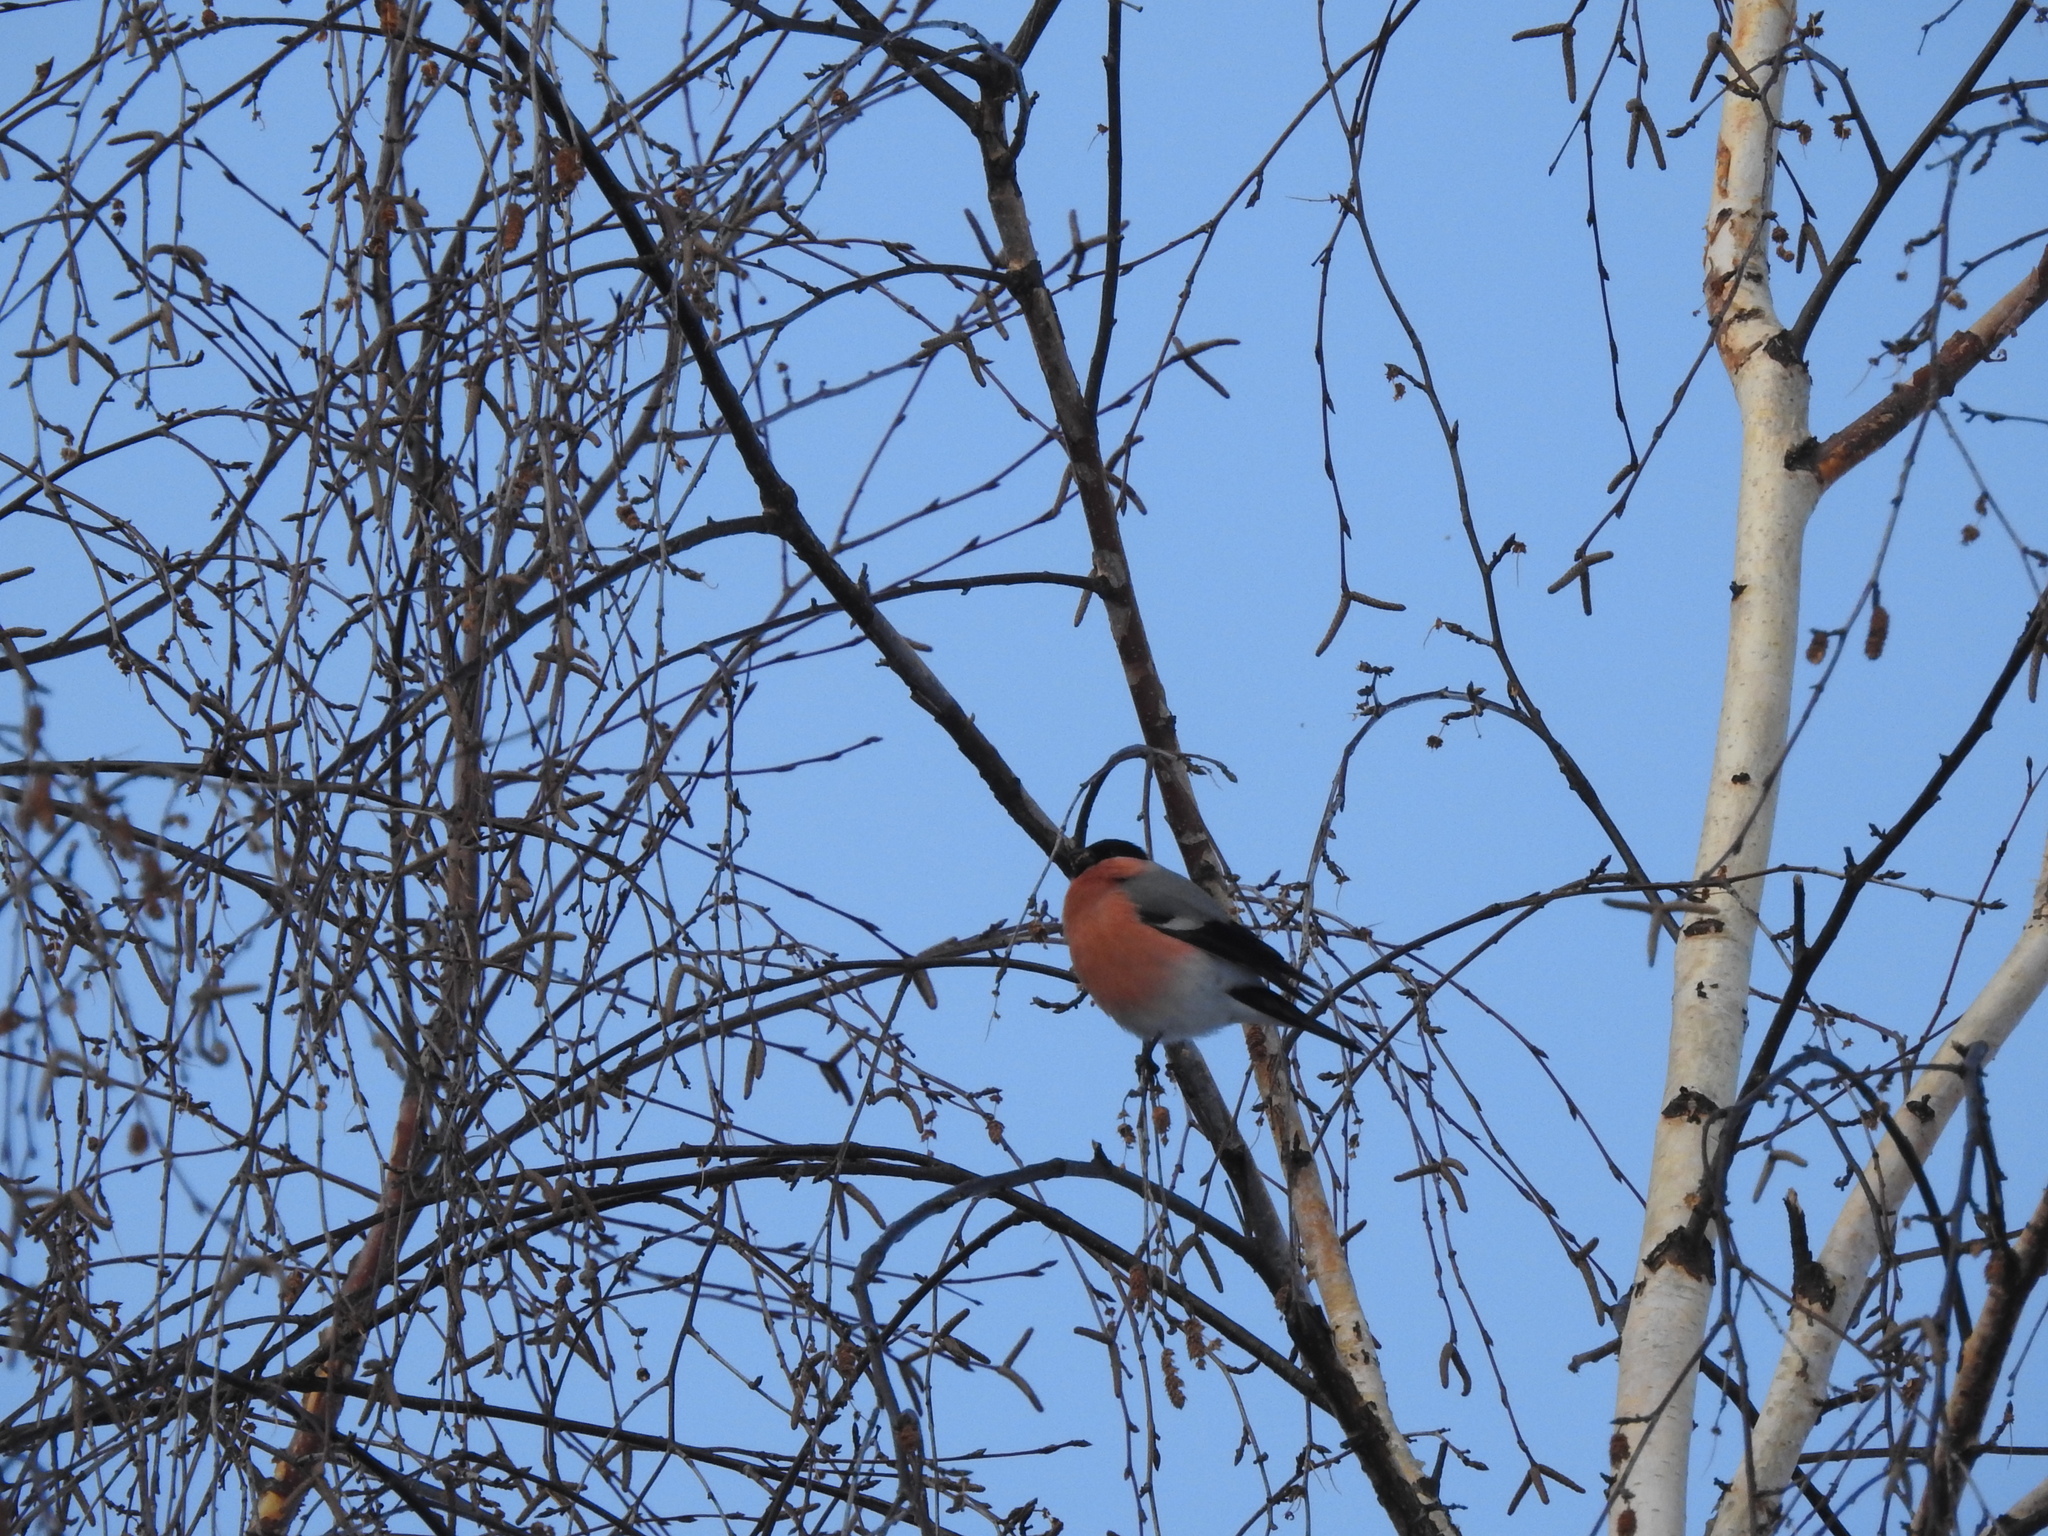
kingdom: Animalia
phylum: Chordata
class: Aves
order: Passeriformes
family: Fringillidae
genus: Pyrrhula
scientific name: Pyrrhula pyrrhula
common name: Eurasian bullfinch
